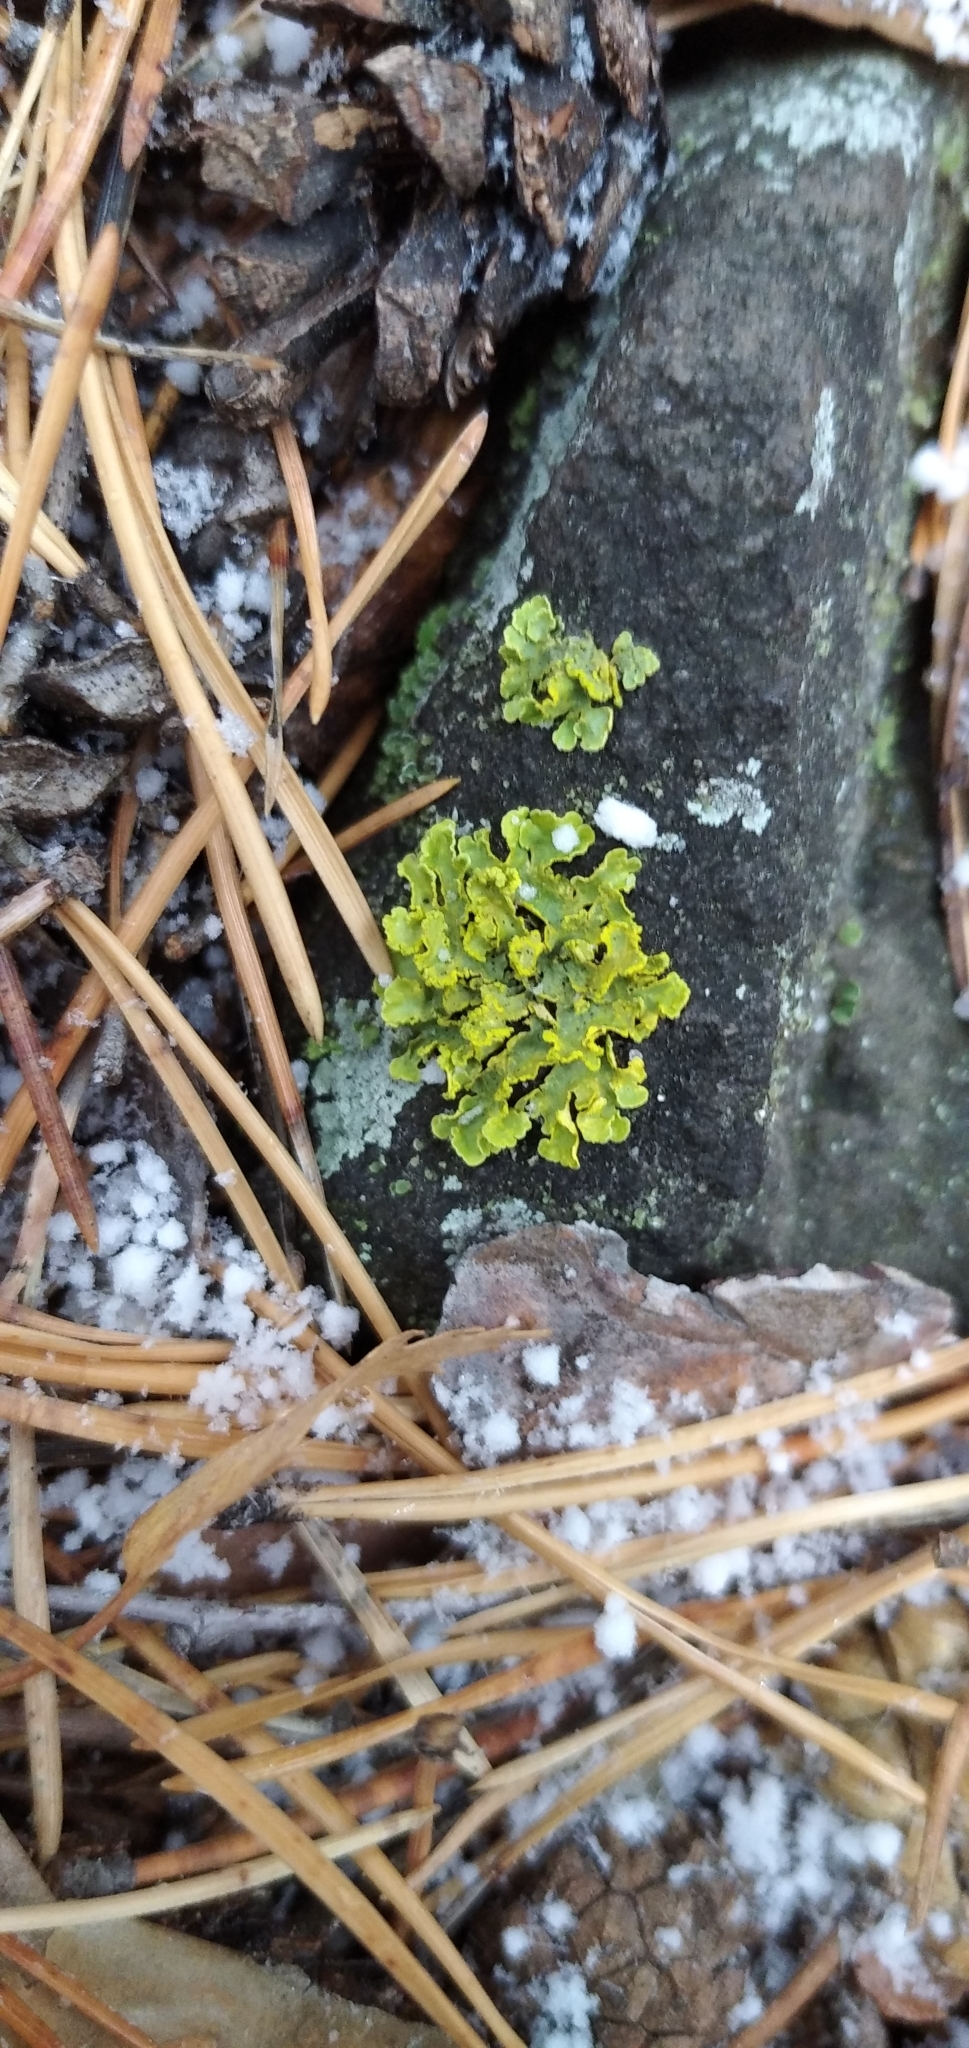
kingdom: Fungi
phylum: Ascomycota
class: Lecanoromycetes
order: Lecanorales
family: Parmeliaceae
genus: Vulpicida
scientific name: Vulpicida pinastri
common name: Powdered sunshine lichen
